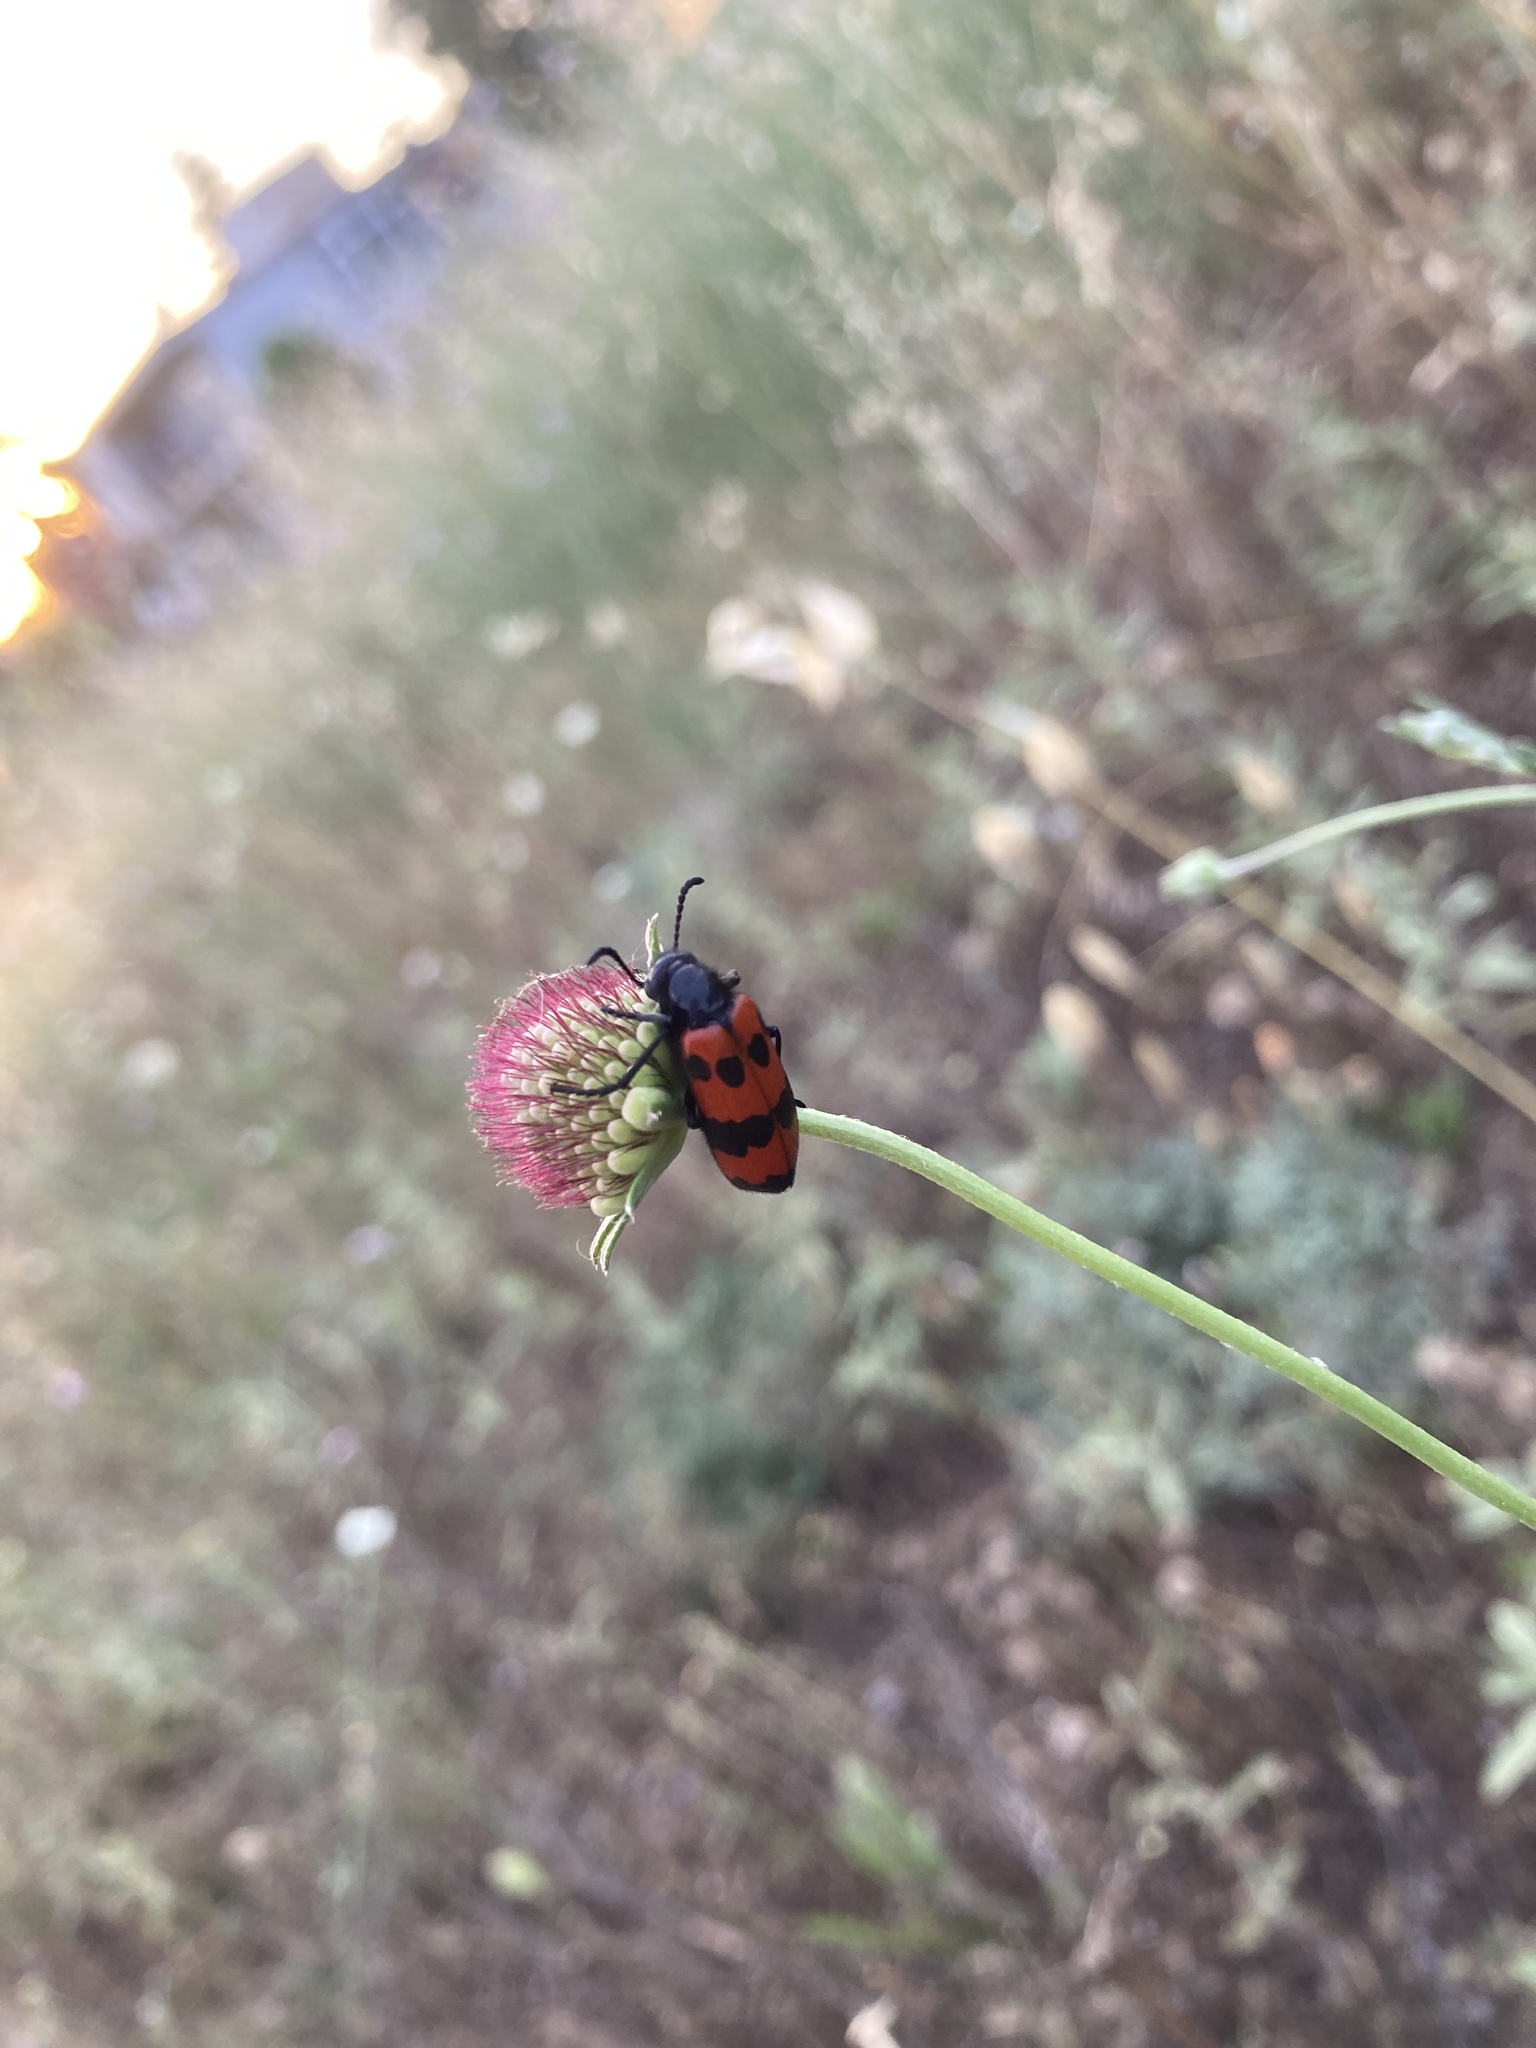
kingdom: Animalia
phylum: Arthropoda
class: Insecta
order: Coleoptera
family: Meloidae
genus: Mylabris
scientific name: Mylabris quadripunctata
